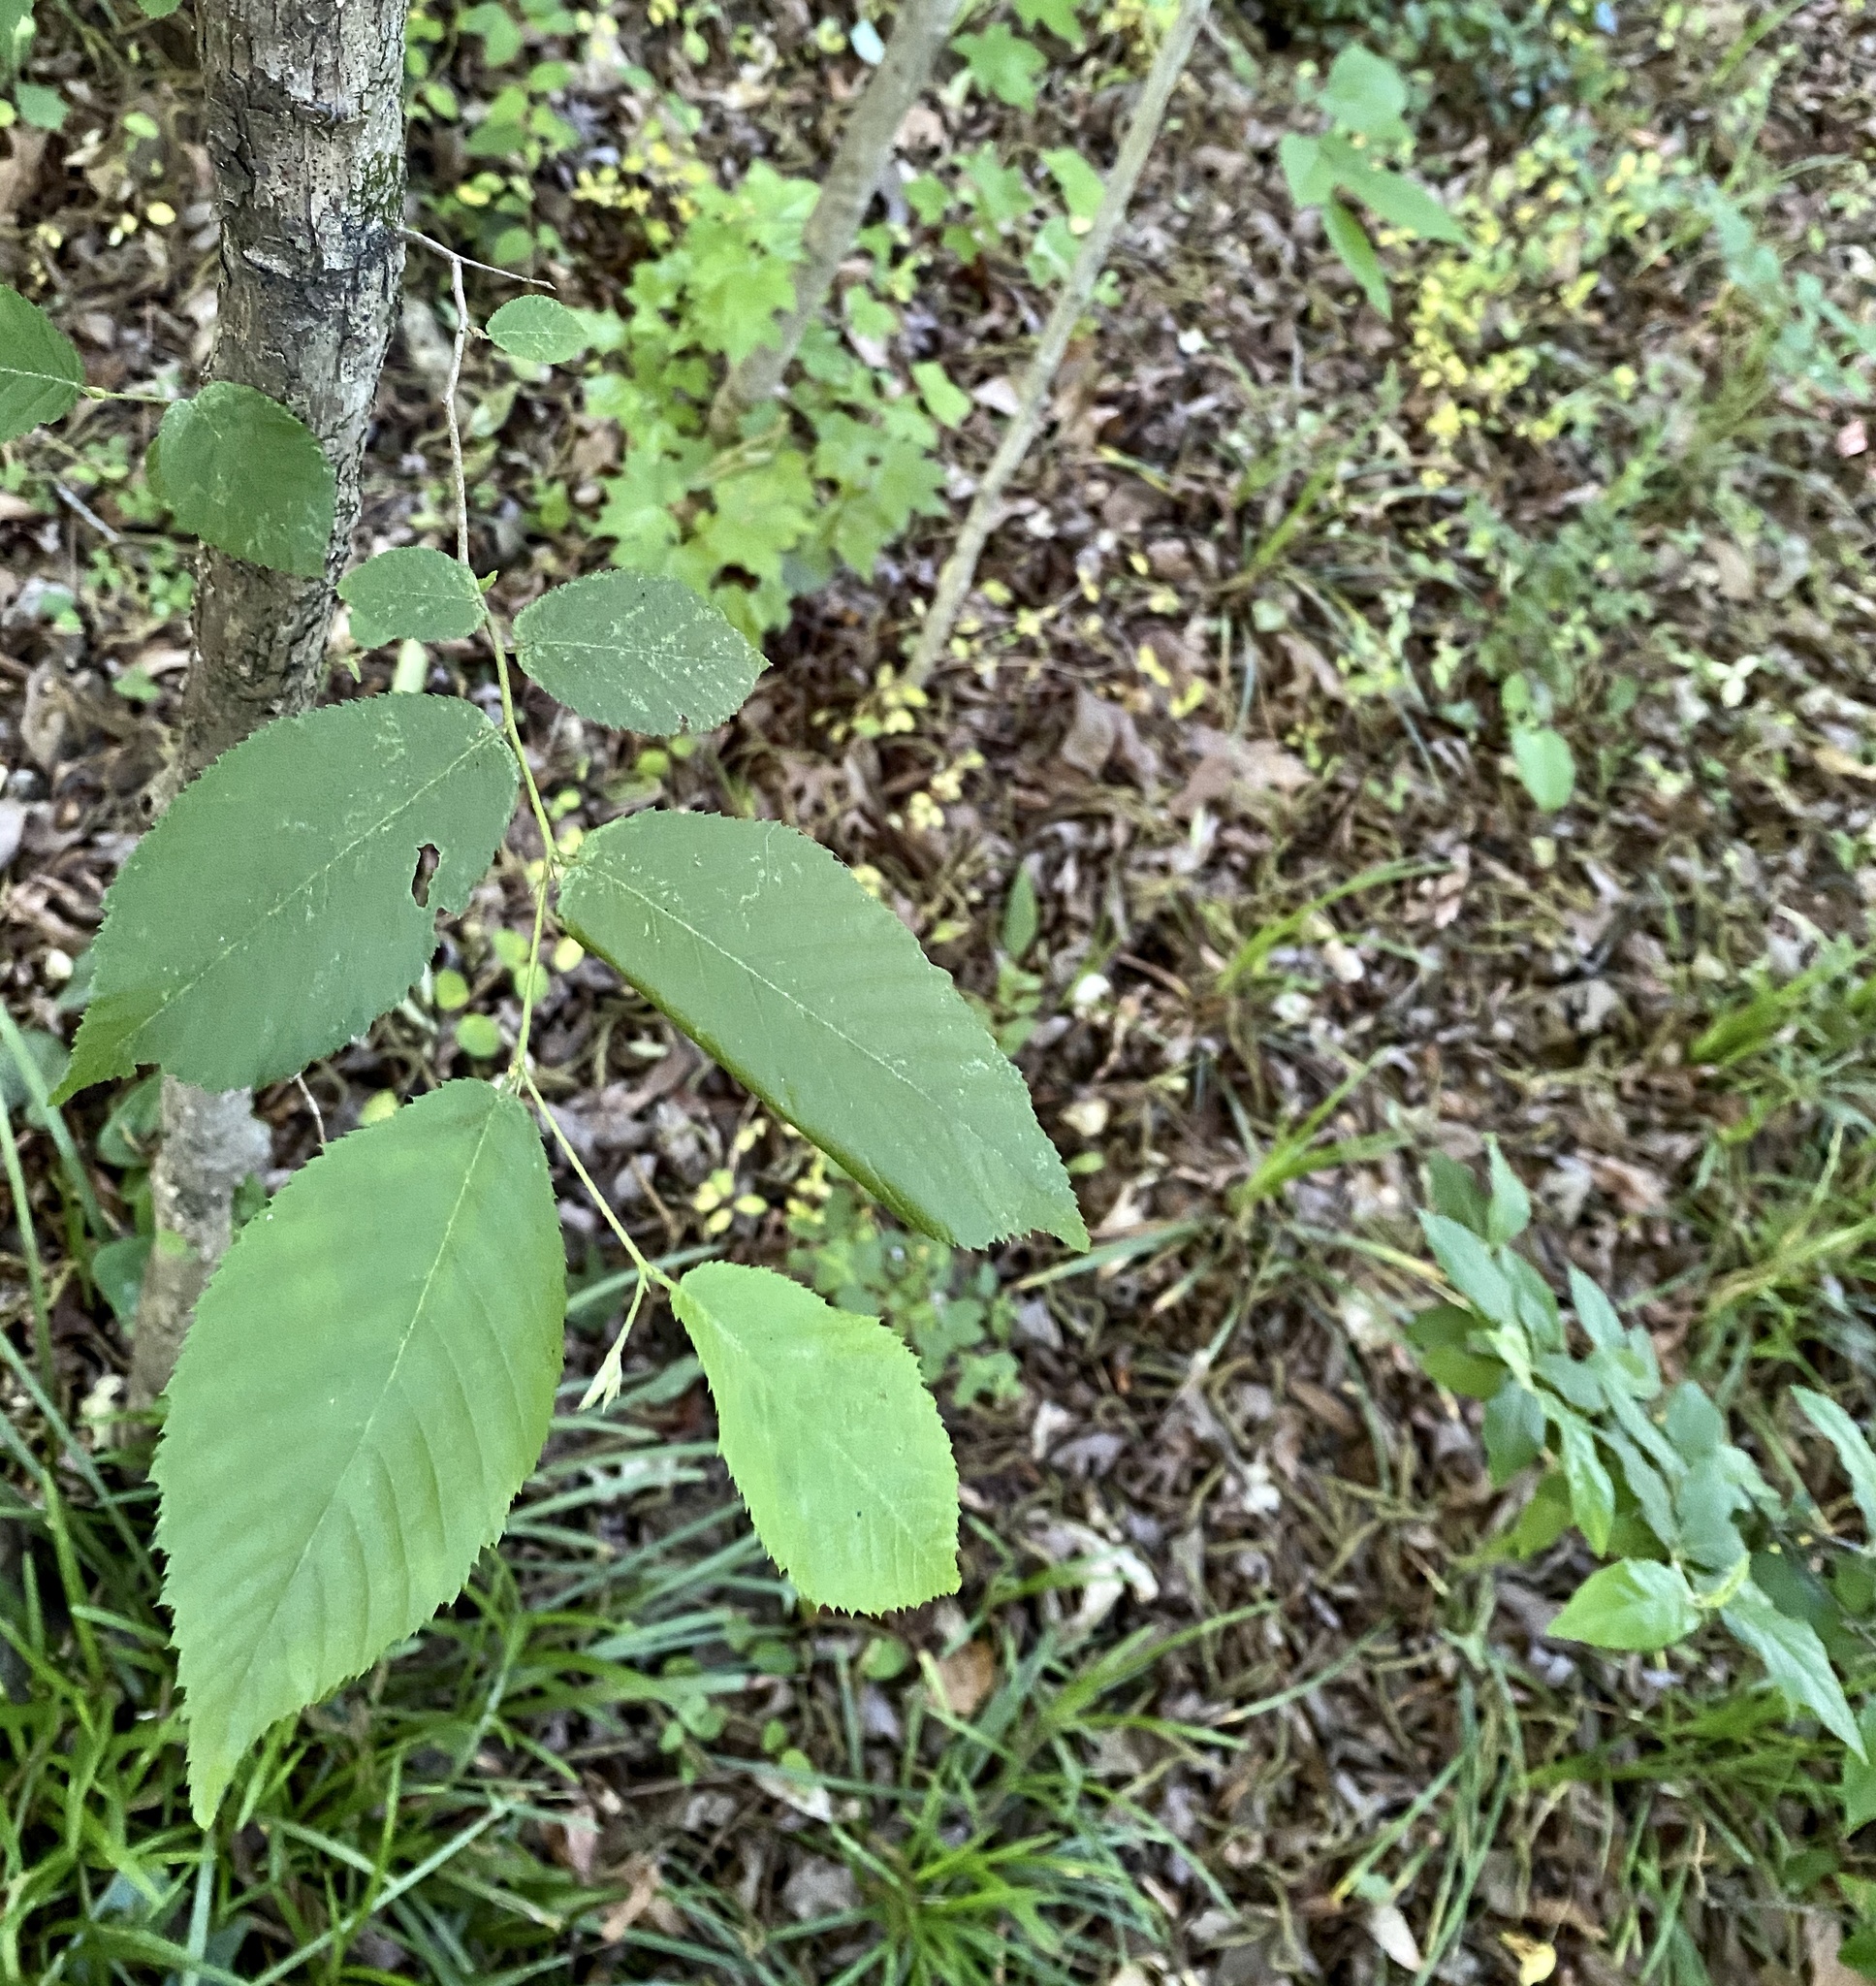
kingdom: Plantae
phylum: Tracheophyta
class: Magnoliopsida
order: Fagales
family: Betulaceae
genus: Ostrya
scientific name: Ostrya virginiana
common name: Ironwood
